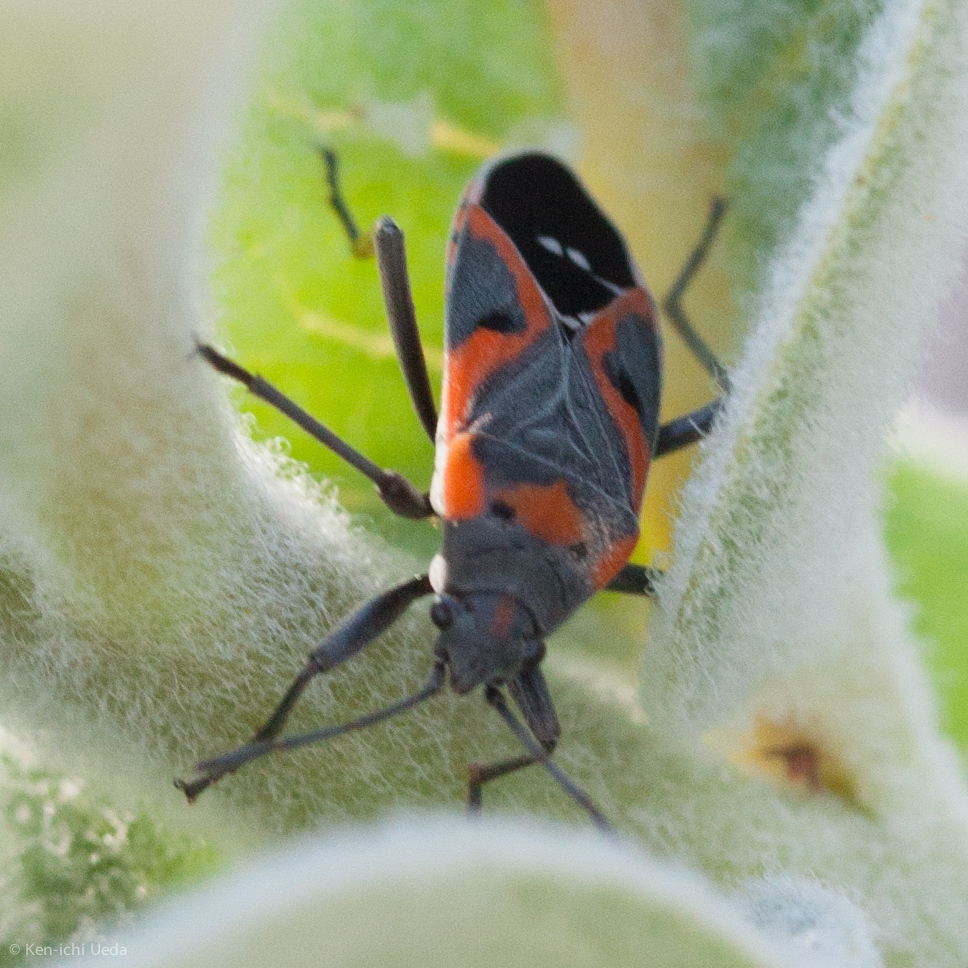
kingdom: Animalia
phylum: Arthropoda
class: Insecta
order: Hemiptera
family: Lygaeidae
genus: Lygaeus
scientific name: Lygaeus kalmii
